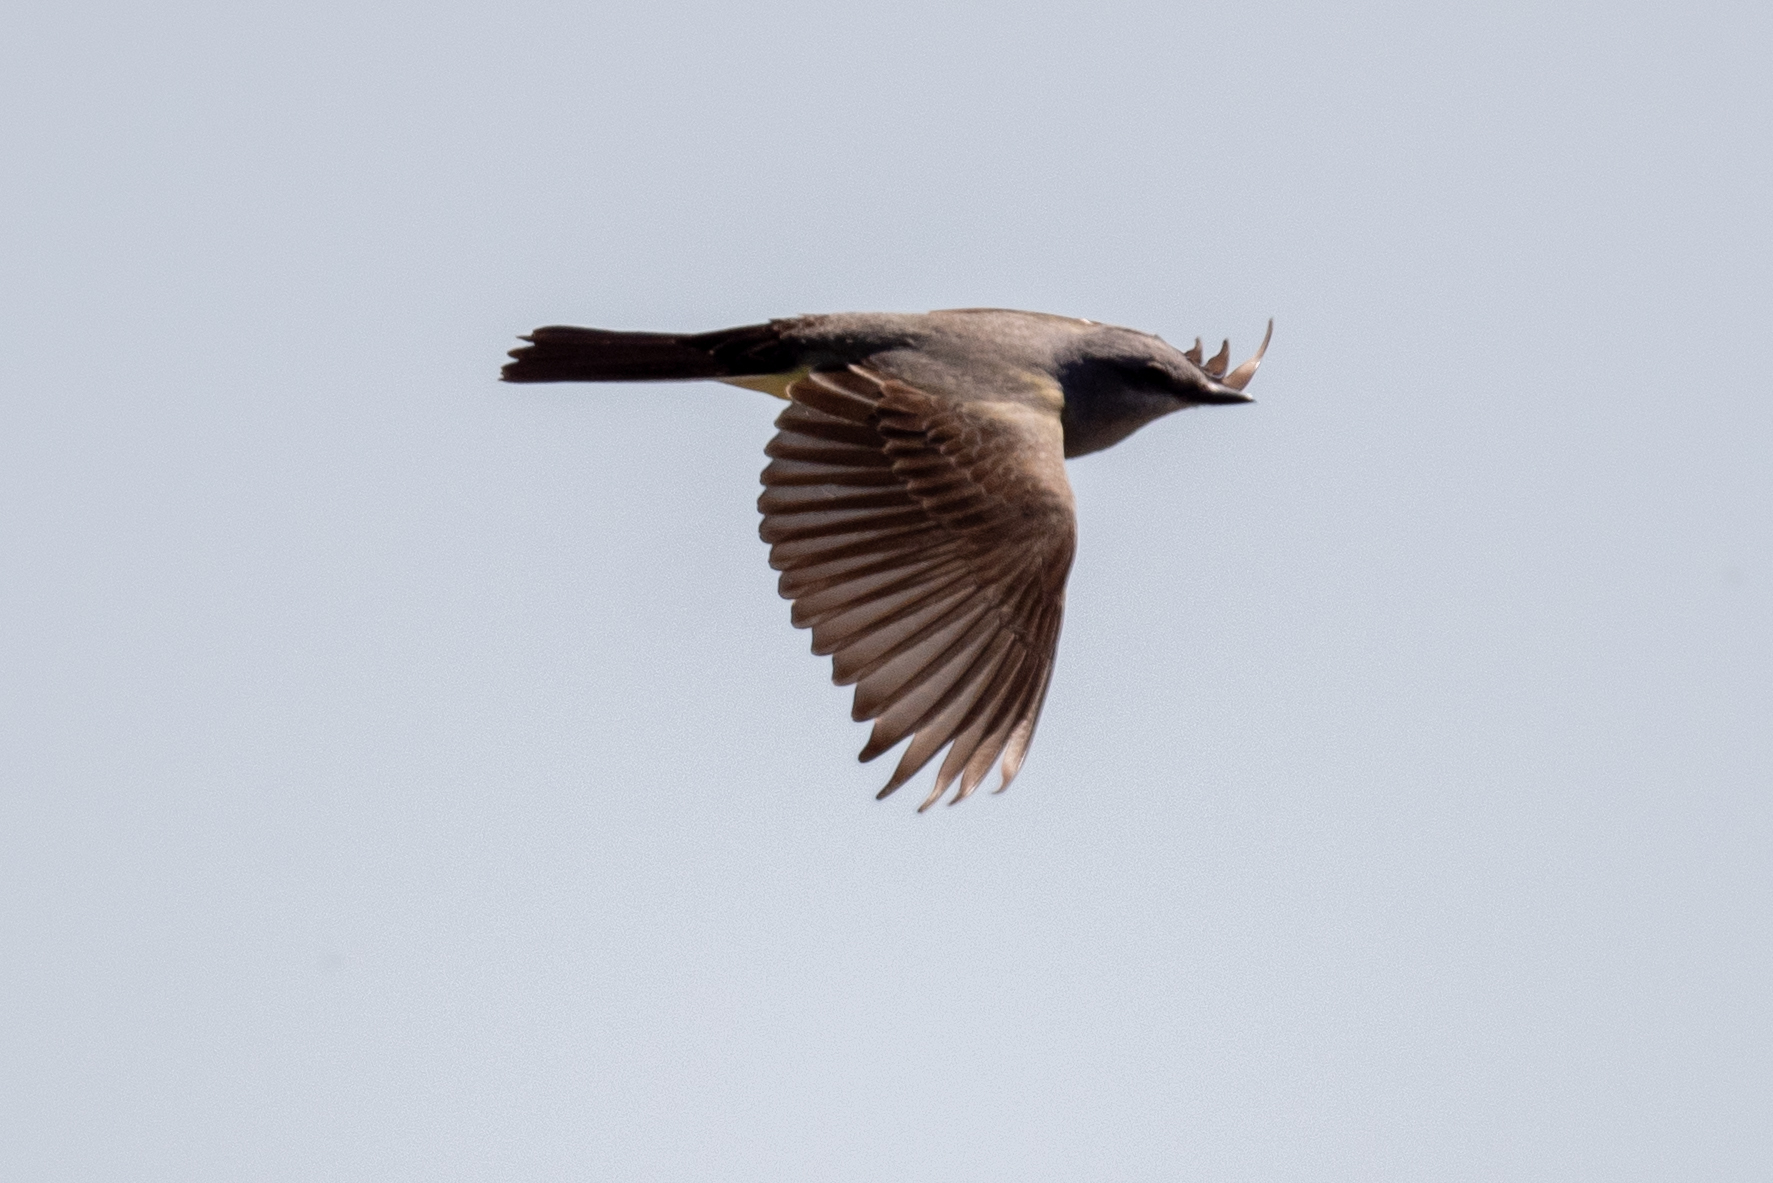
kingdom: Animalia
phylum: Chordata
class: Aves
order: Passeriformes
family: Tyrannidae
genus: Tyrannus
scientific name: Tyrannus verticalis
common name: Western kingbird
